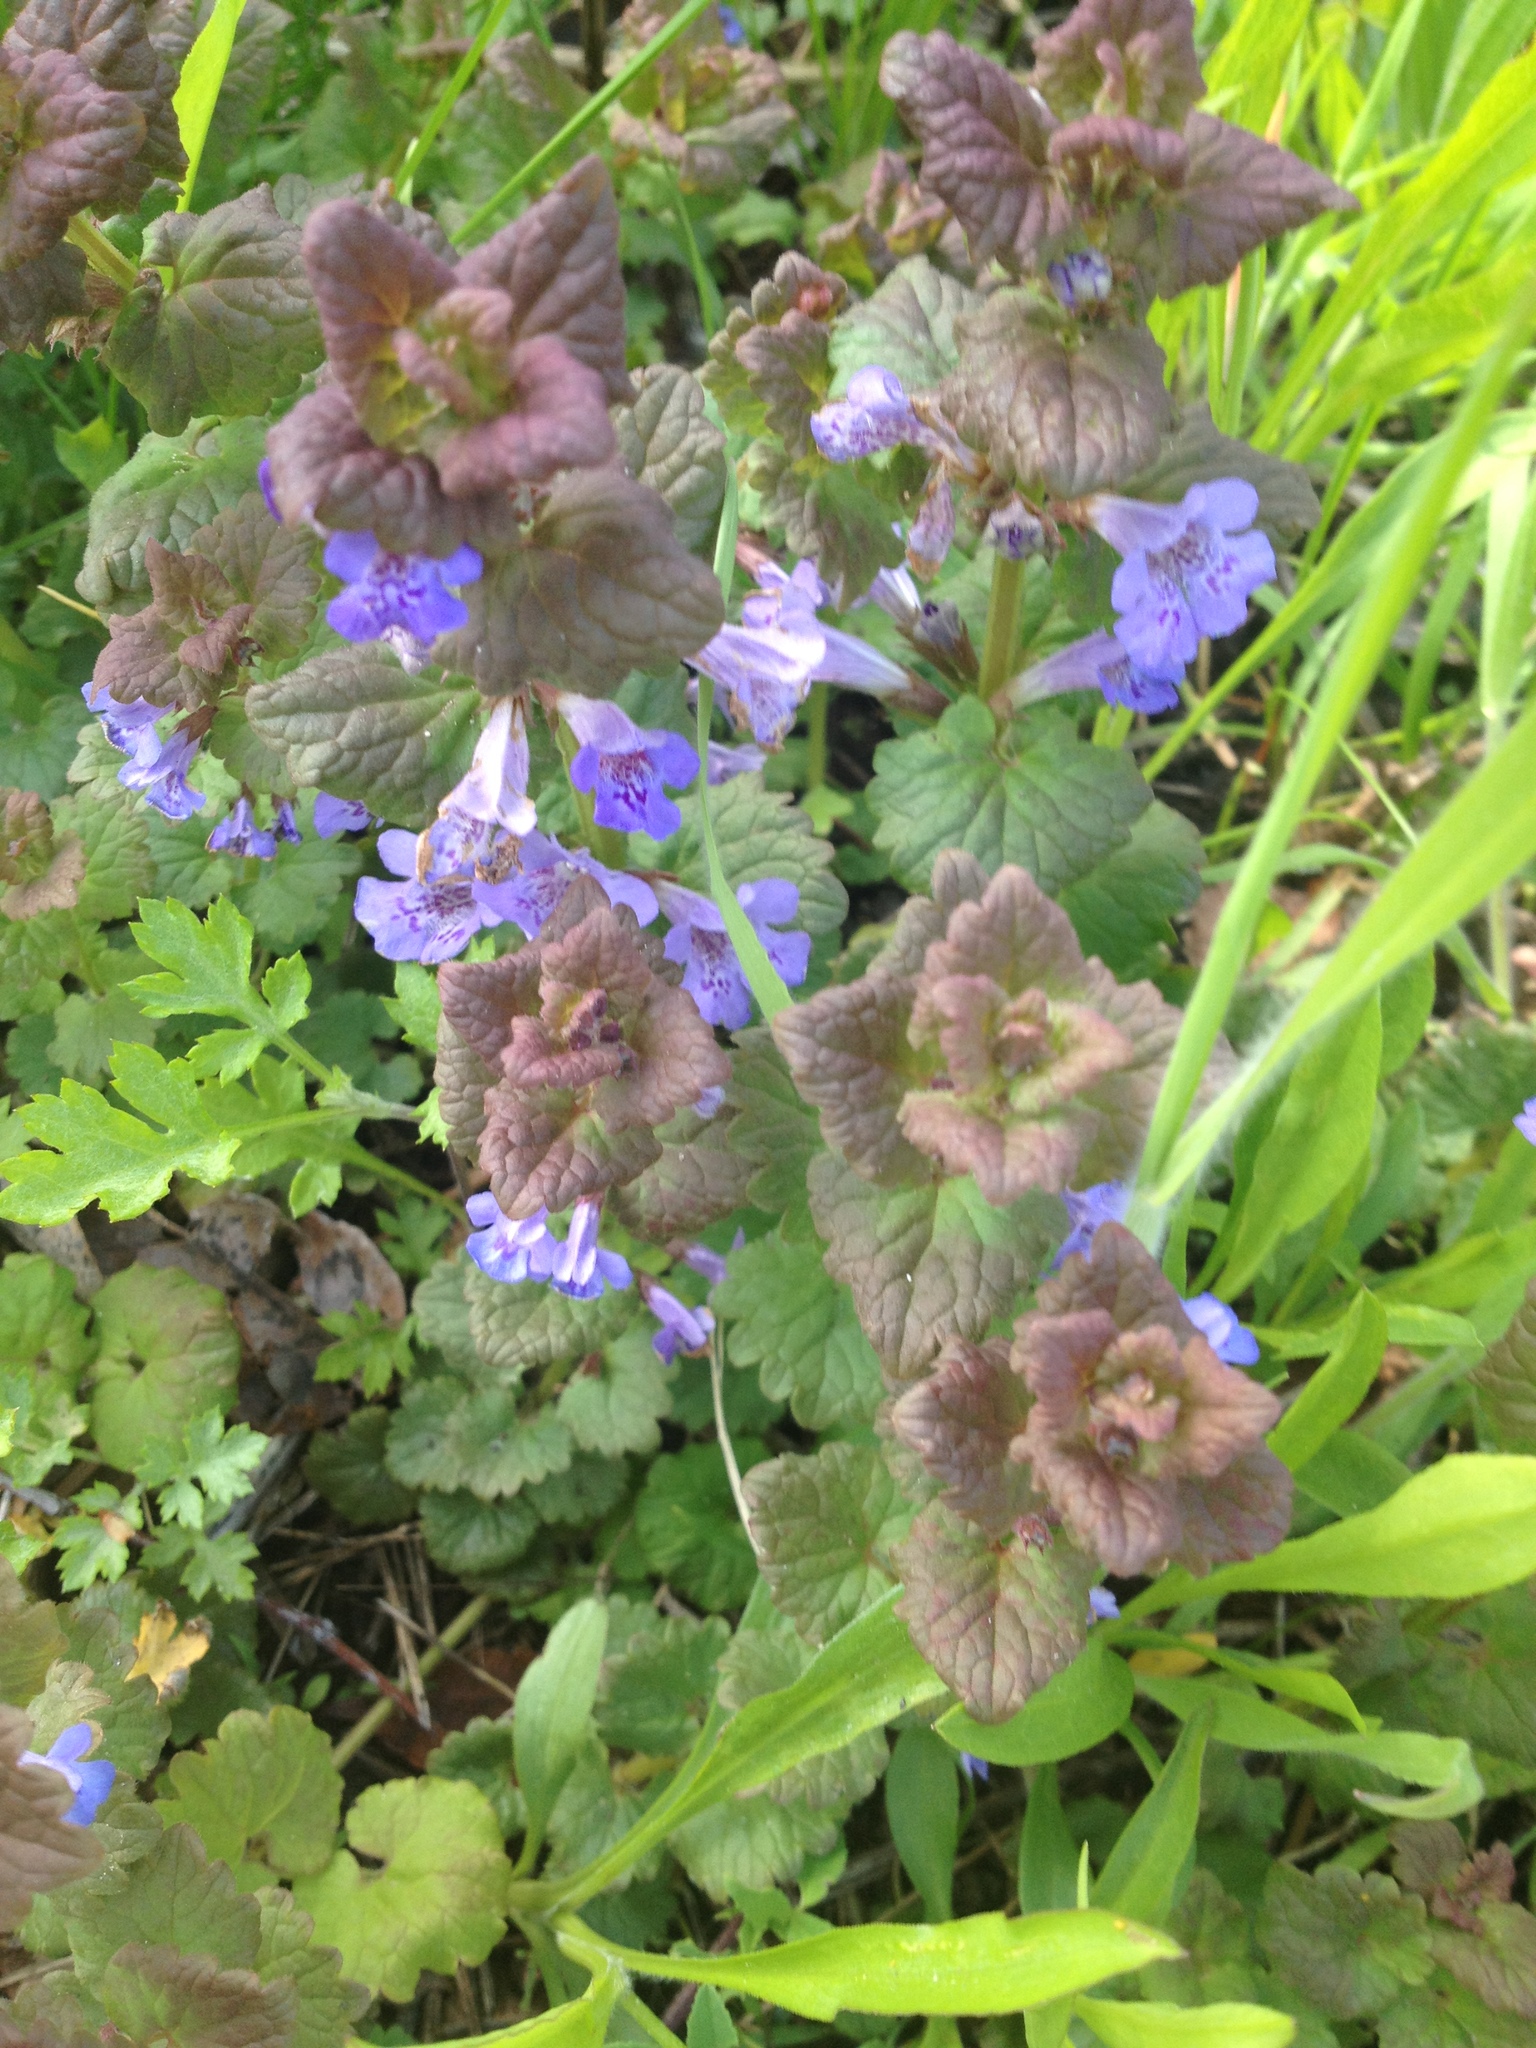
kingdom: Plantae
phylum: Tracheophyta
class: Magnoliopsida
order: Lamiales
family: Lamiaceae
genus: Glechoma
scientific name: Glechoma hederacea
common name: Ground ivy
